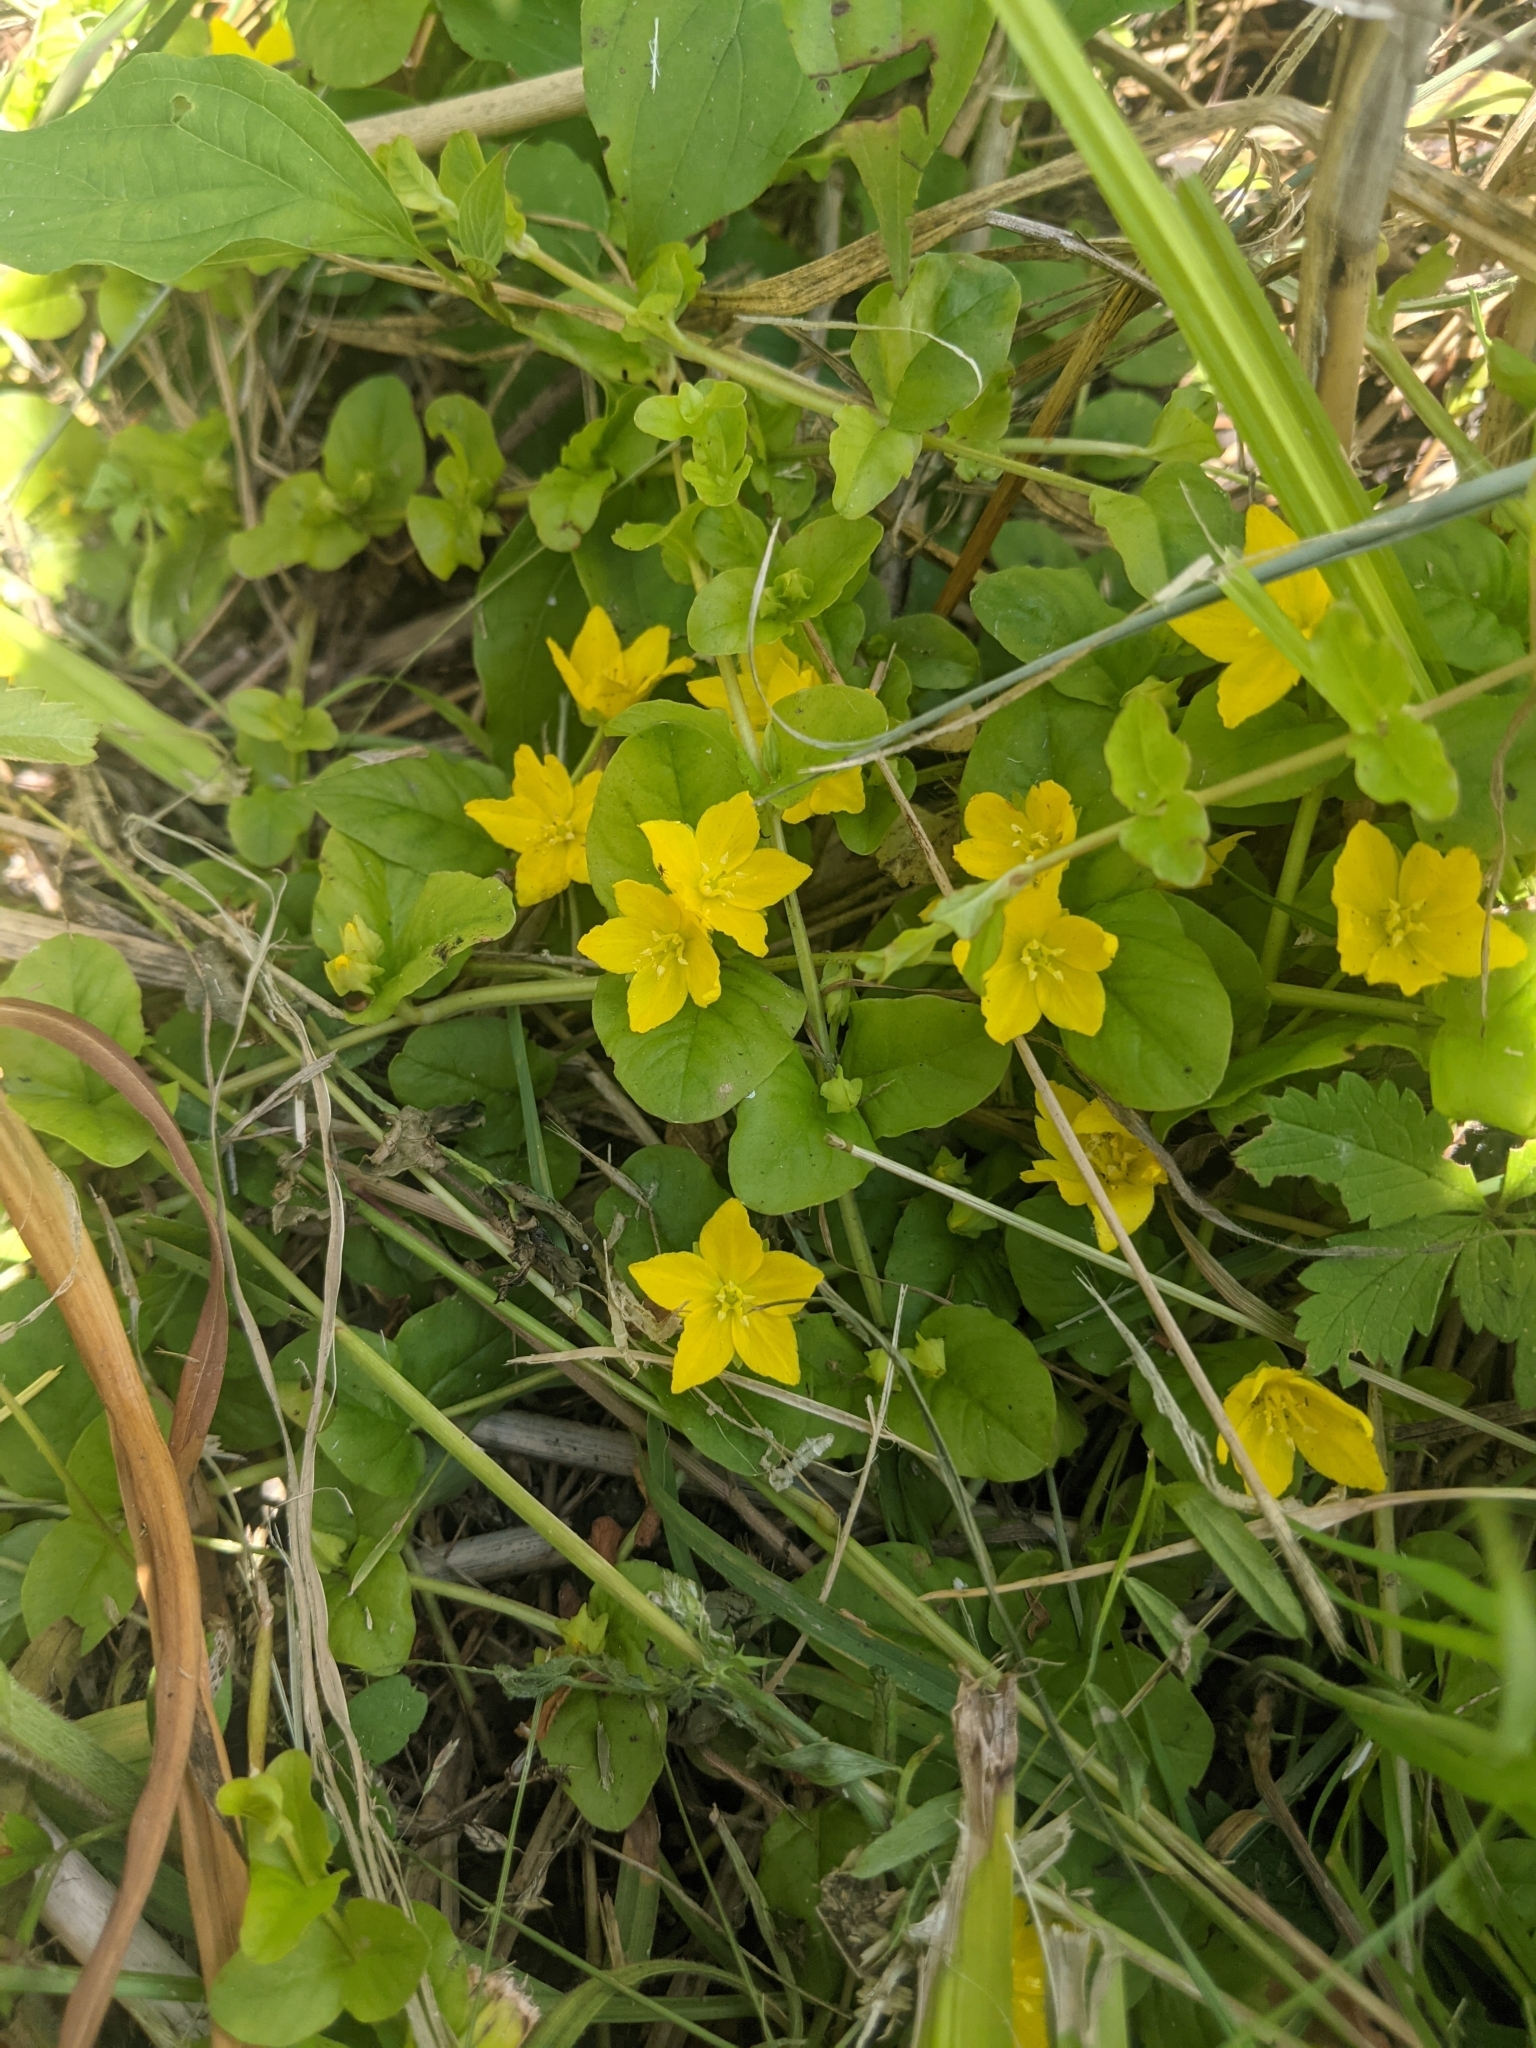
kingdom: Plantae
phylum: Tracheophyta
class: Magnoliopsida
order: Ericales
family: Primulaceae
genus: Lysimachia
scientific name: Lysimachia nummularia
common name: Moneywort
